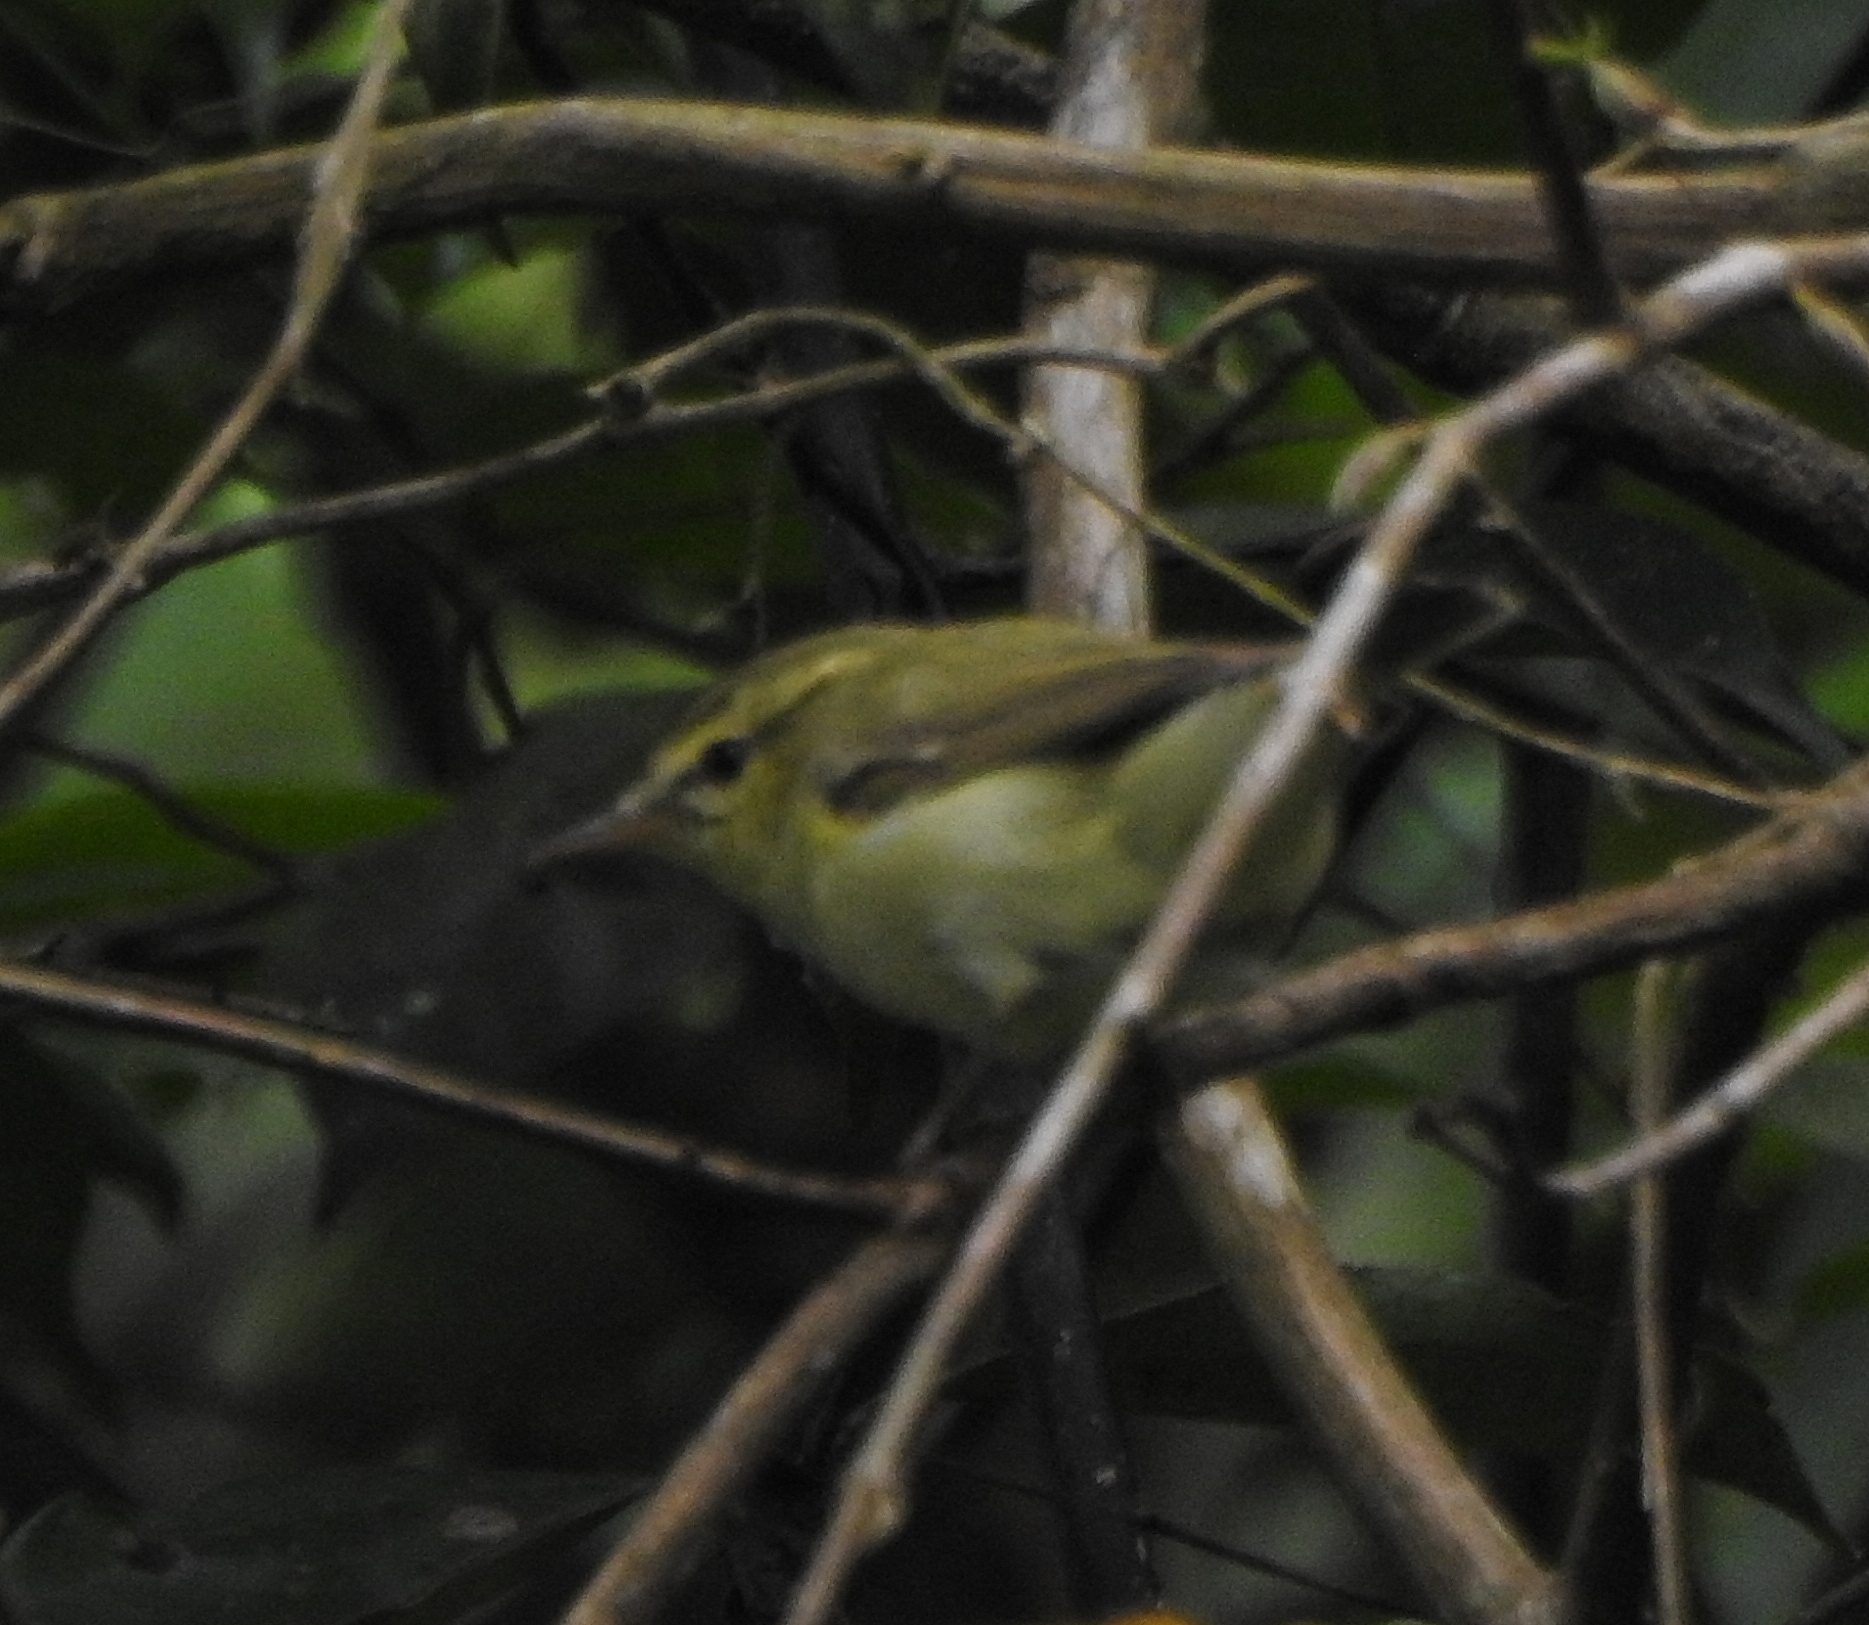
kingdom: Animalia
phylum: Chordata
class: Aves
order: Passeriformes
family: Phylloscopidae
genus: Phylloscopus
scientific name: Phylloscopus nitidus
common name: Green warbler
